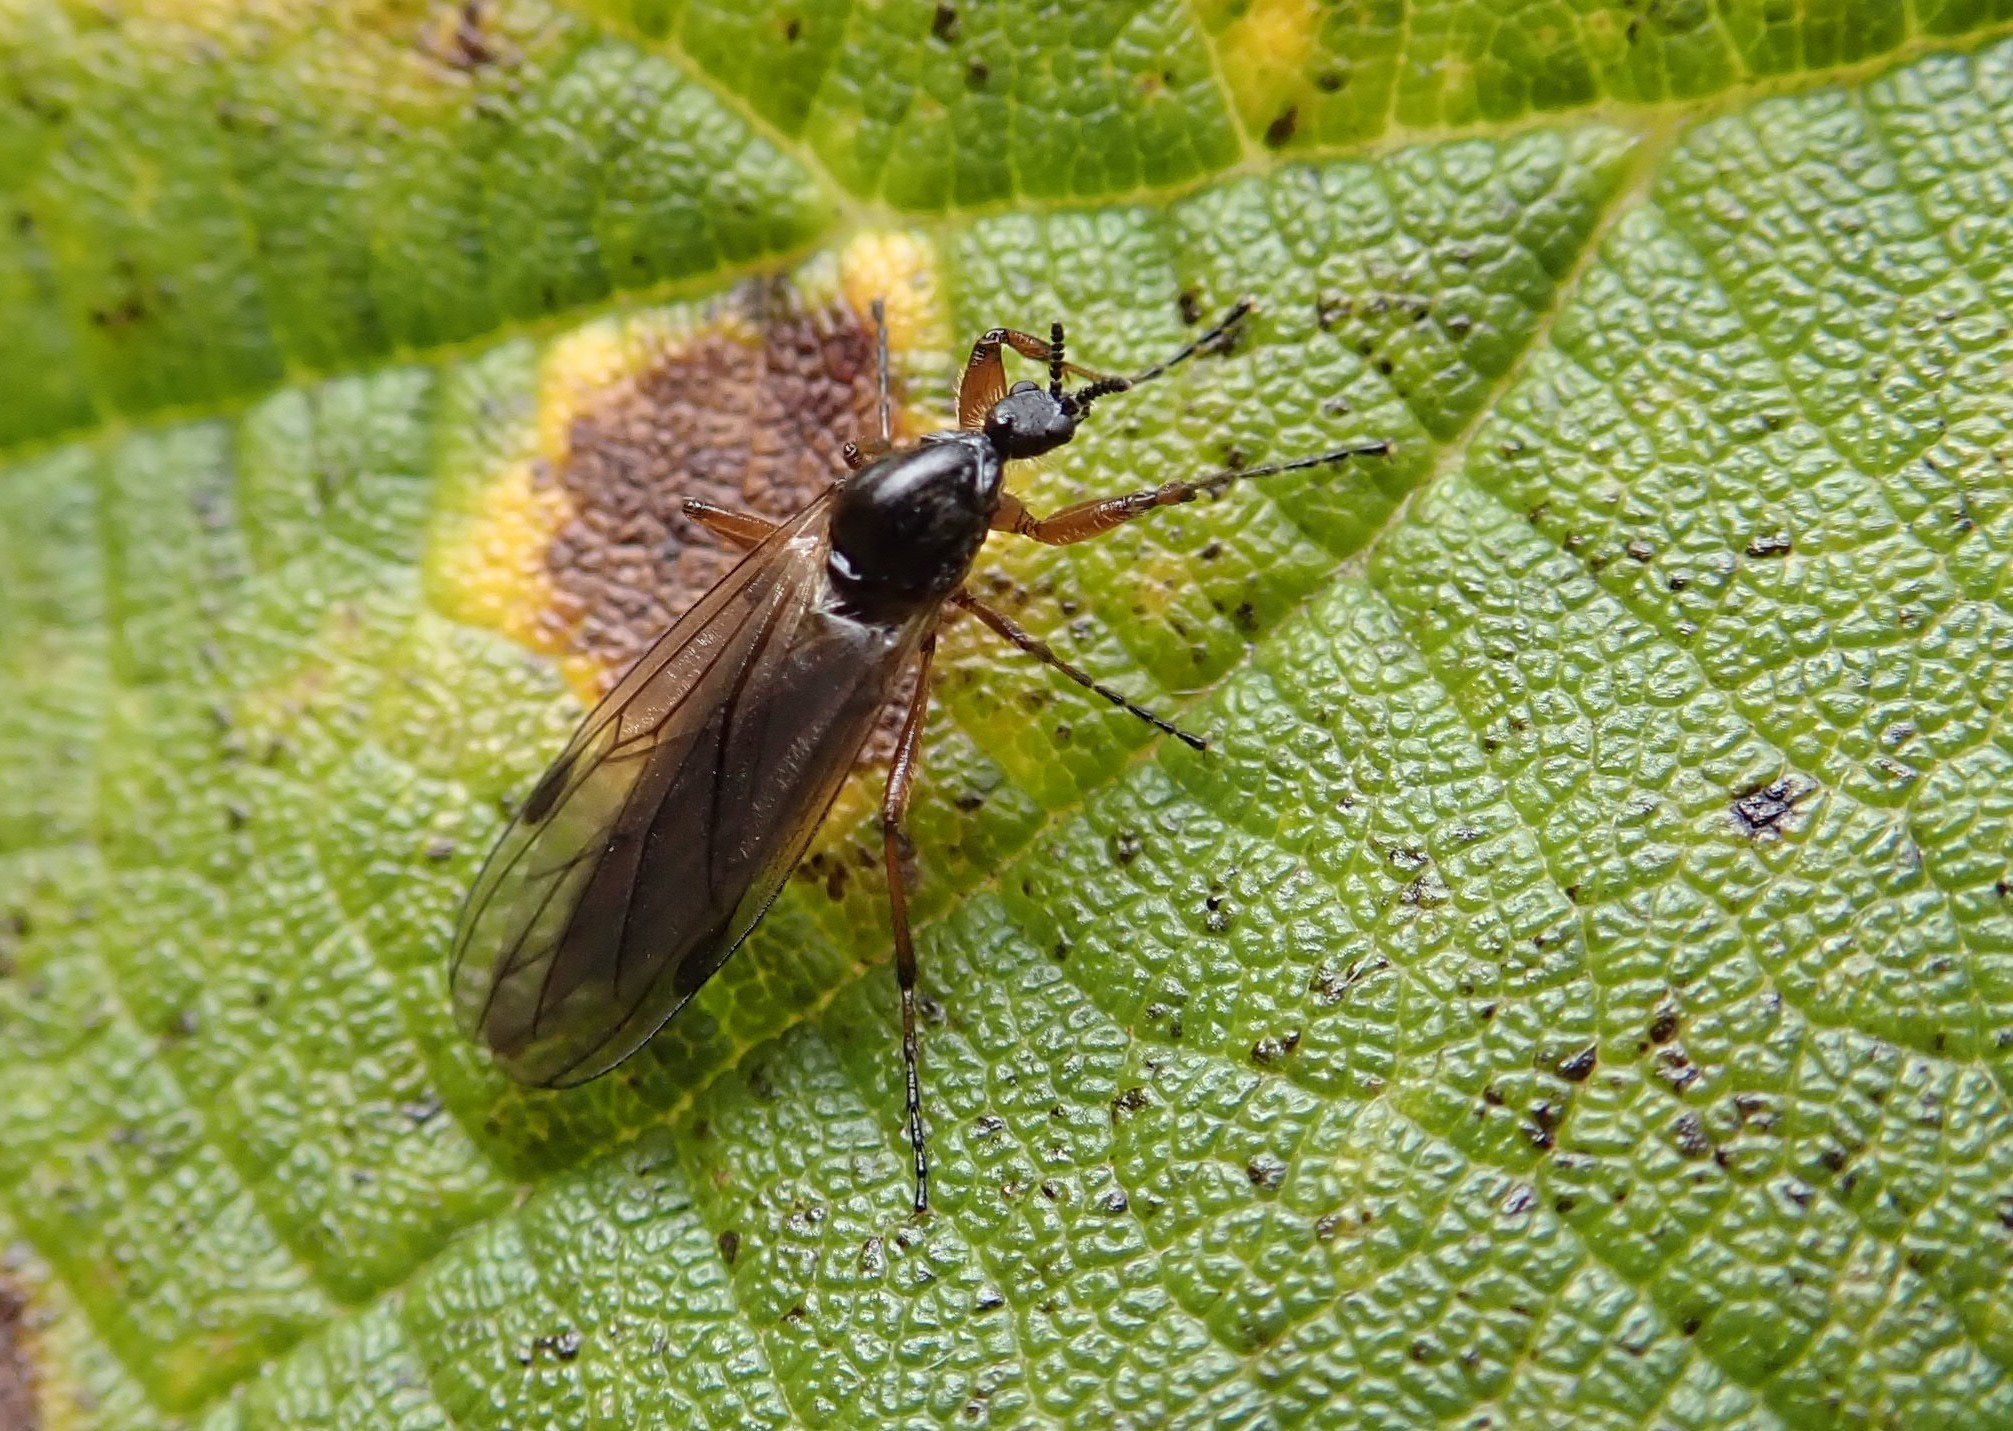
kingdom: Animalia
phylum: Arthropoda
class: Insecta
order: Diptera
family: Bibionidae
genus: Bibio
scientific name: Bibio slossonae
